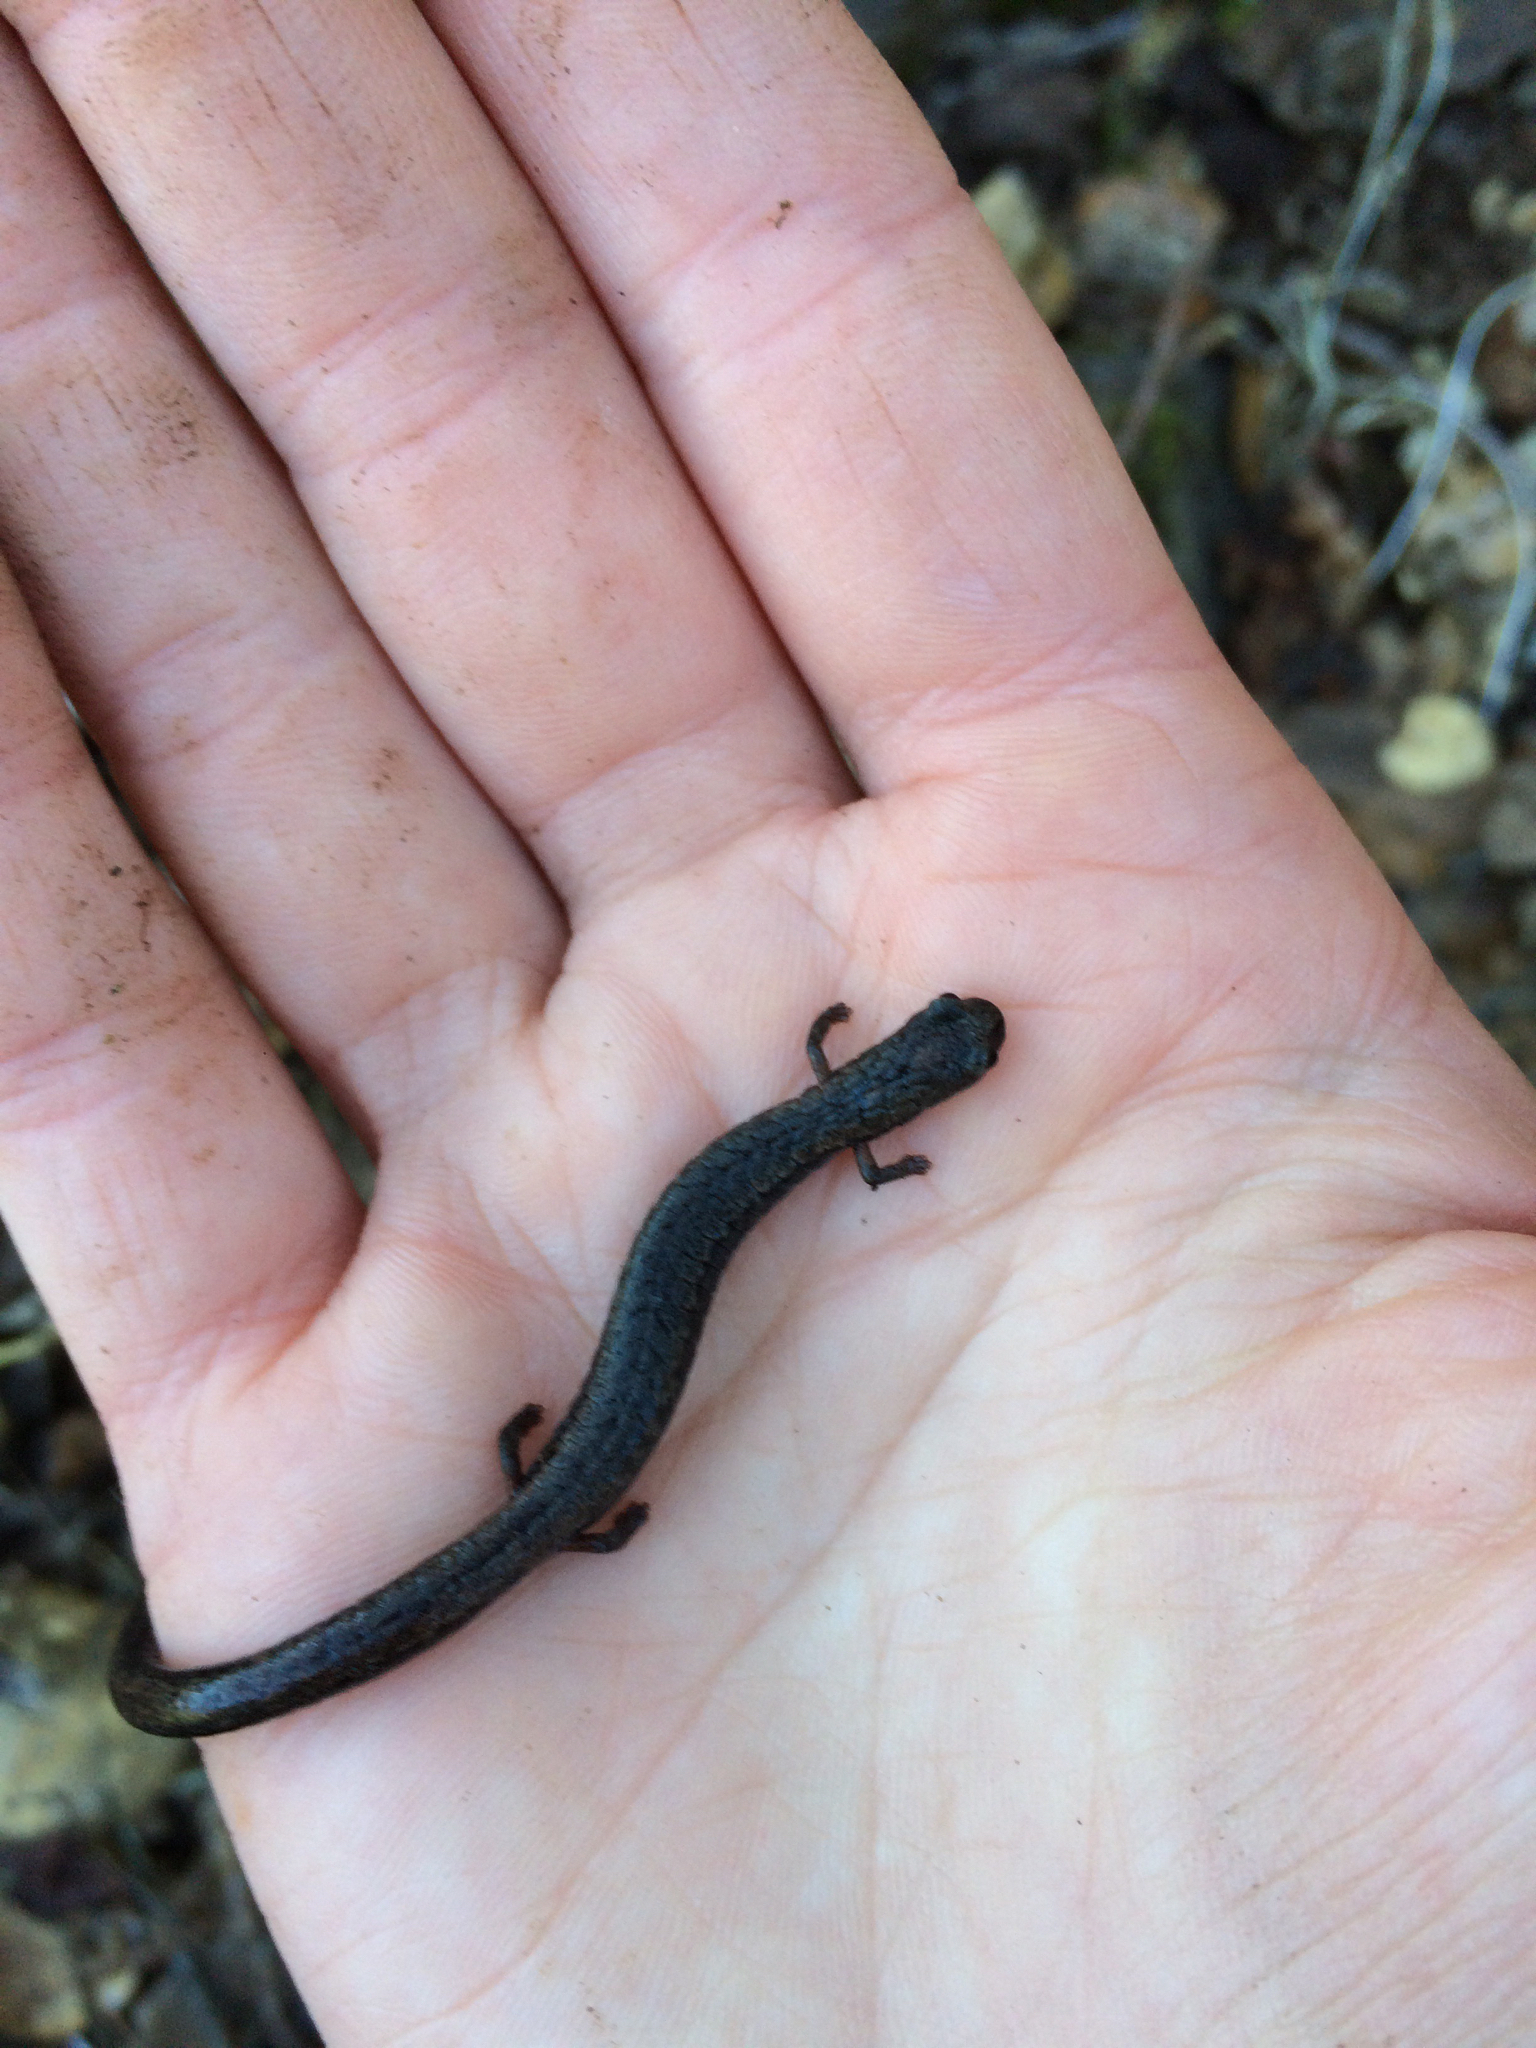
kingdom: Animalia
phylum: Chordata
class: Amphibia
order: Caudata
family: Plethodontidae
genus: Batrachoseps
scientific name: Batrachoseps attenuatus
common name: California slender salamander
